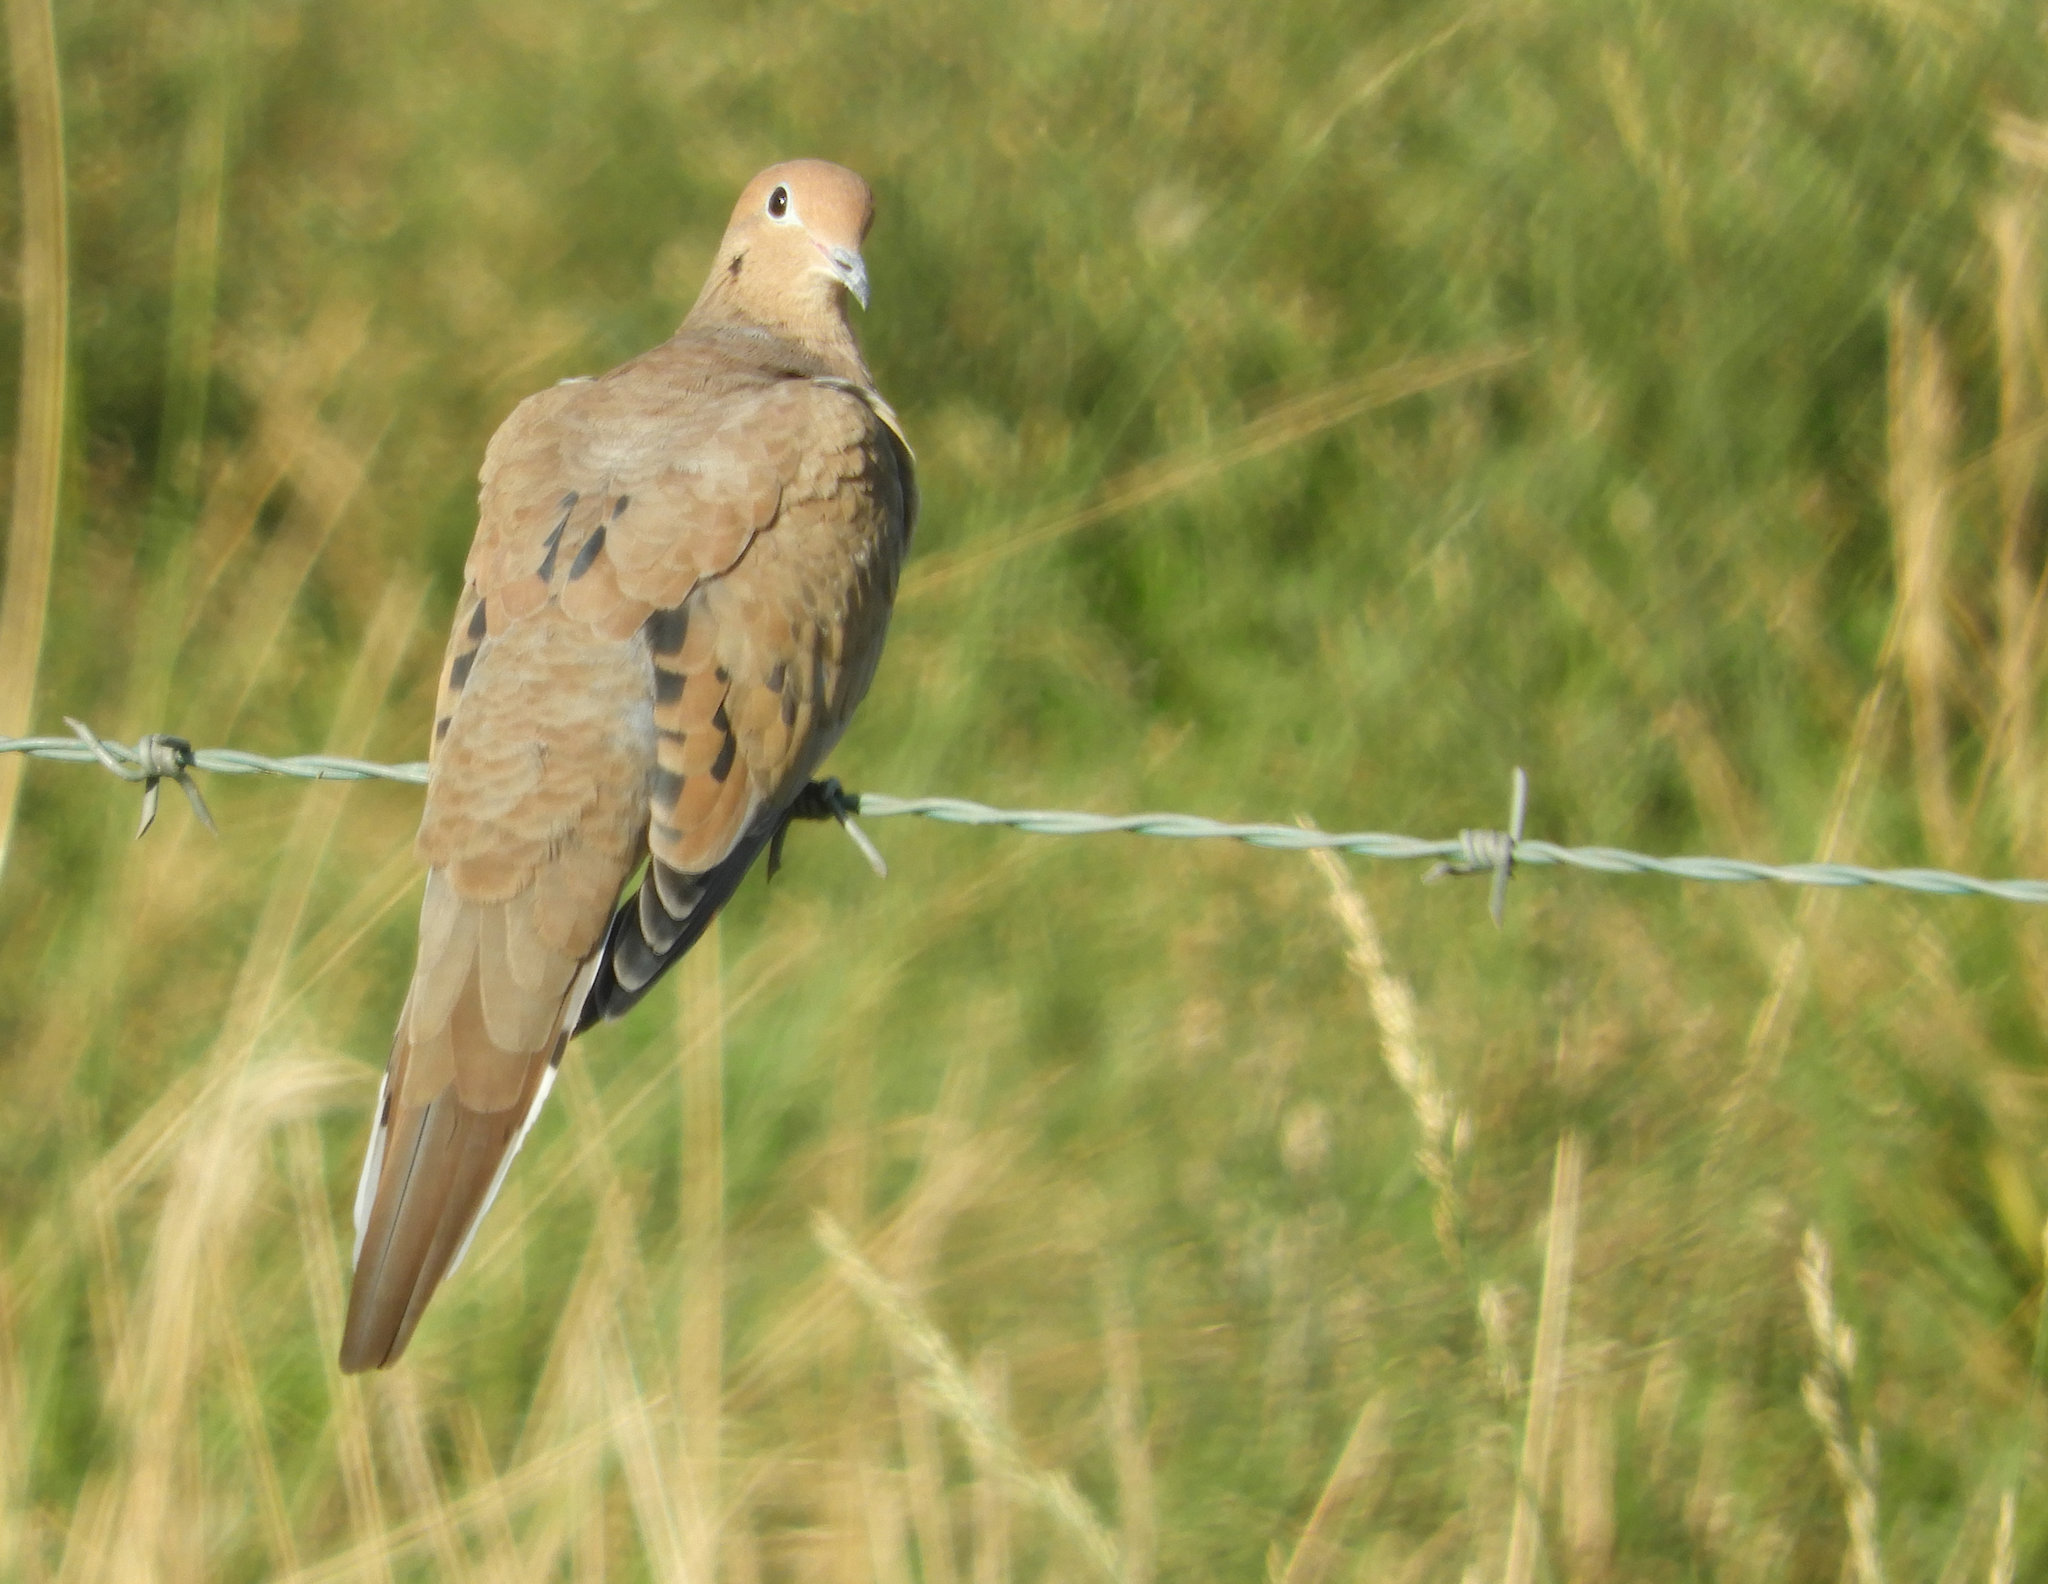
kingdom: Animalia
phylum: Chordata
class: Aves
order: Columbiformes
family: Columbidae
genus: Zenaida
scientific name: Zenaida macroura
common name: Mourning dove
